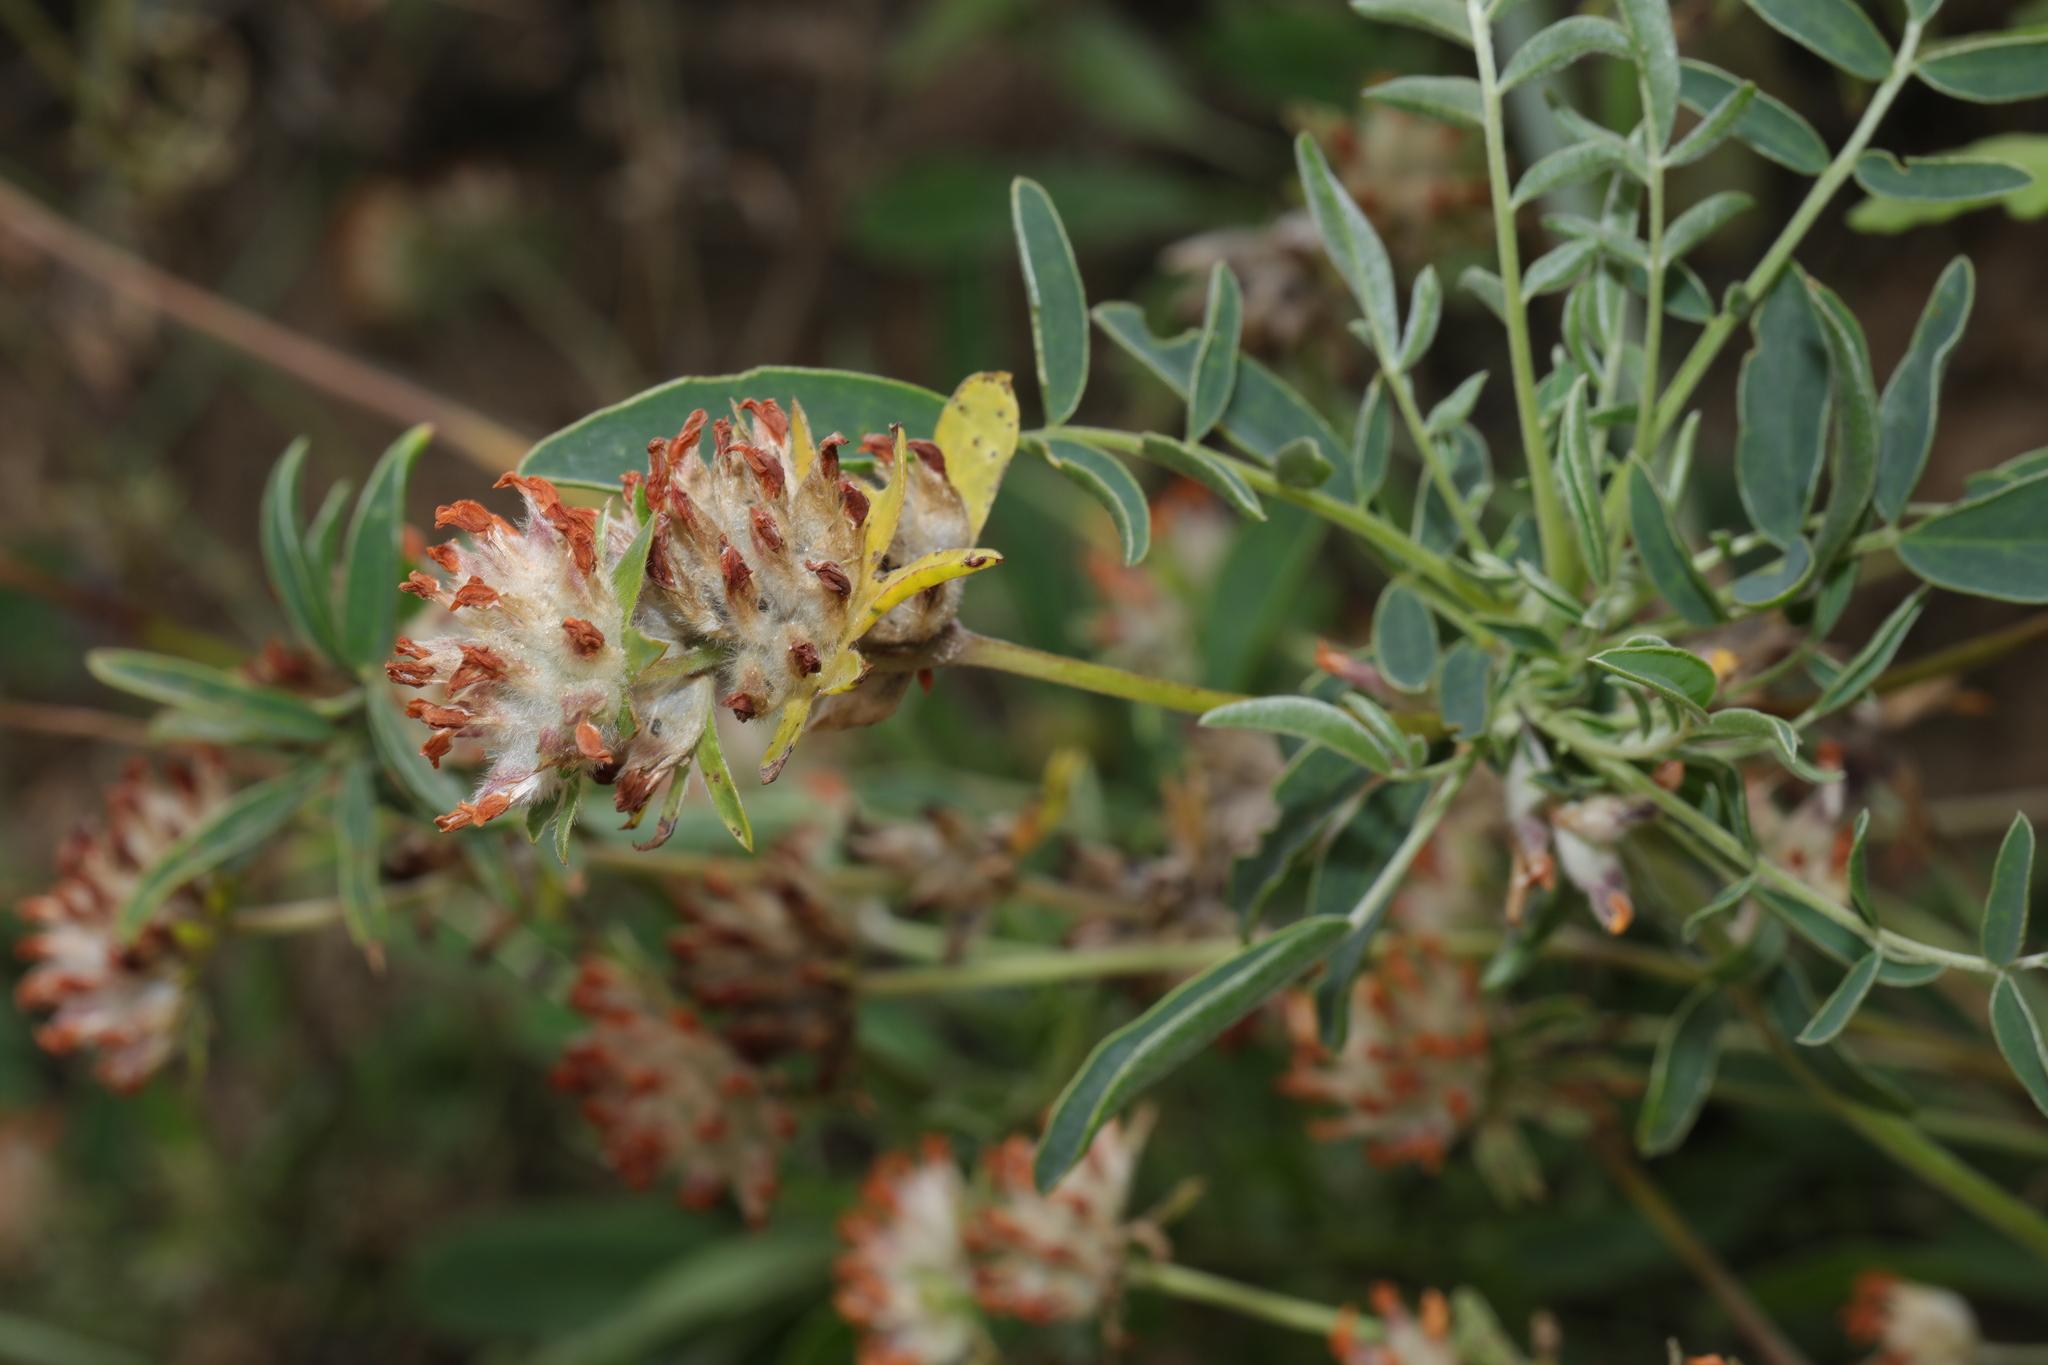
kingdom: Plantae
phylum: Tracheophyta
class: Magnoliopsida
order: Fabales
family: Fabaceae
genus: Anthyllis
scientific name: Anthyllis vulneraria
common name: Kidney vetch
